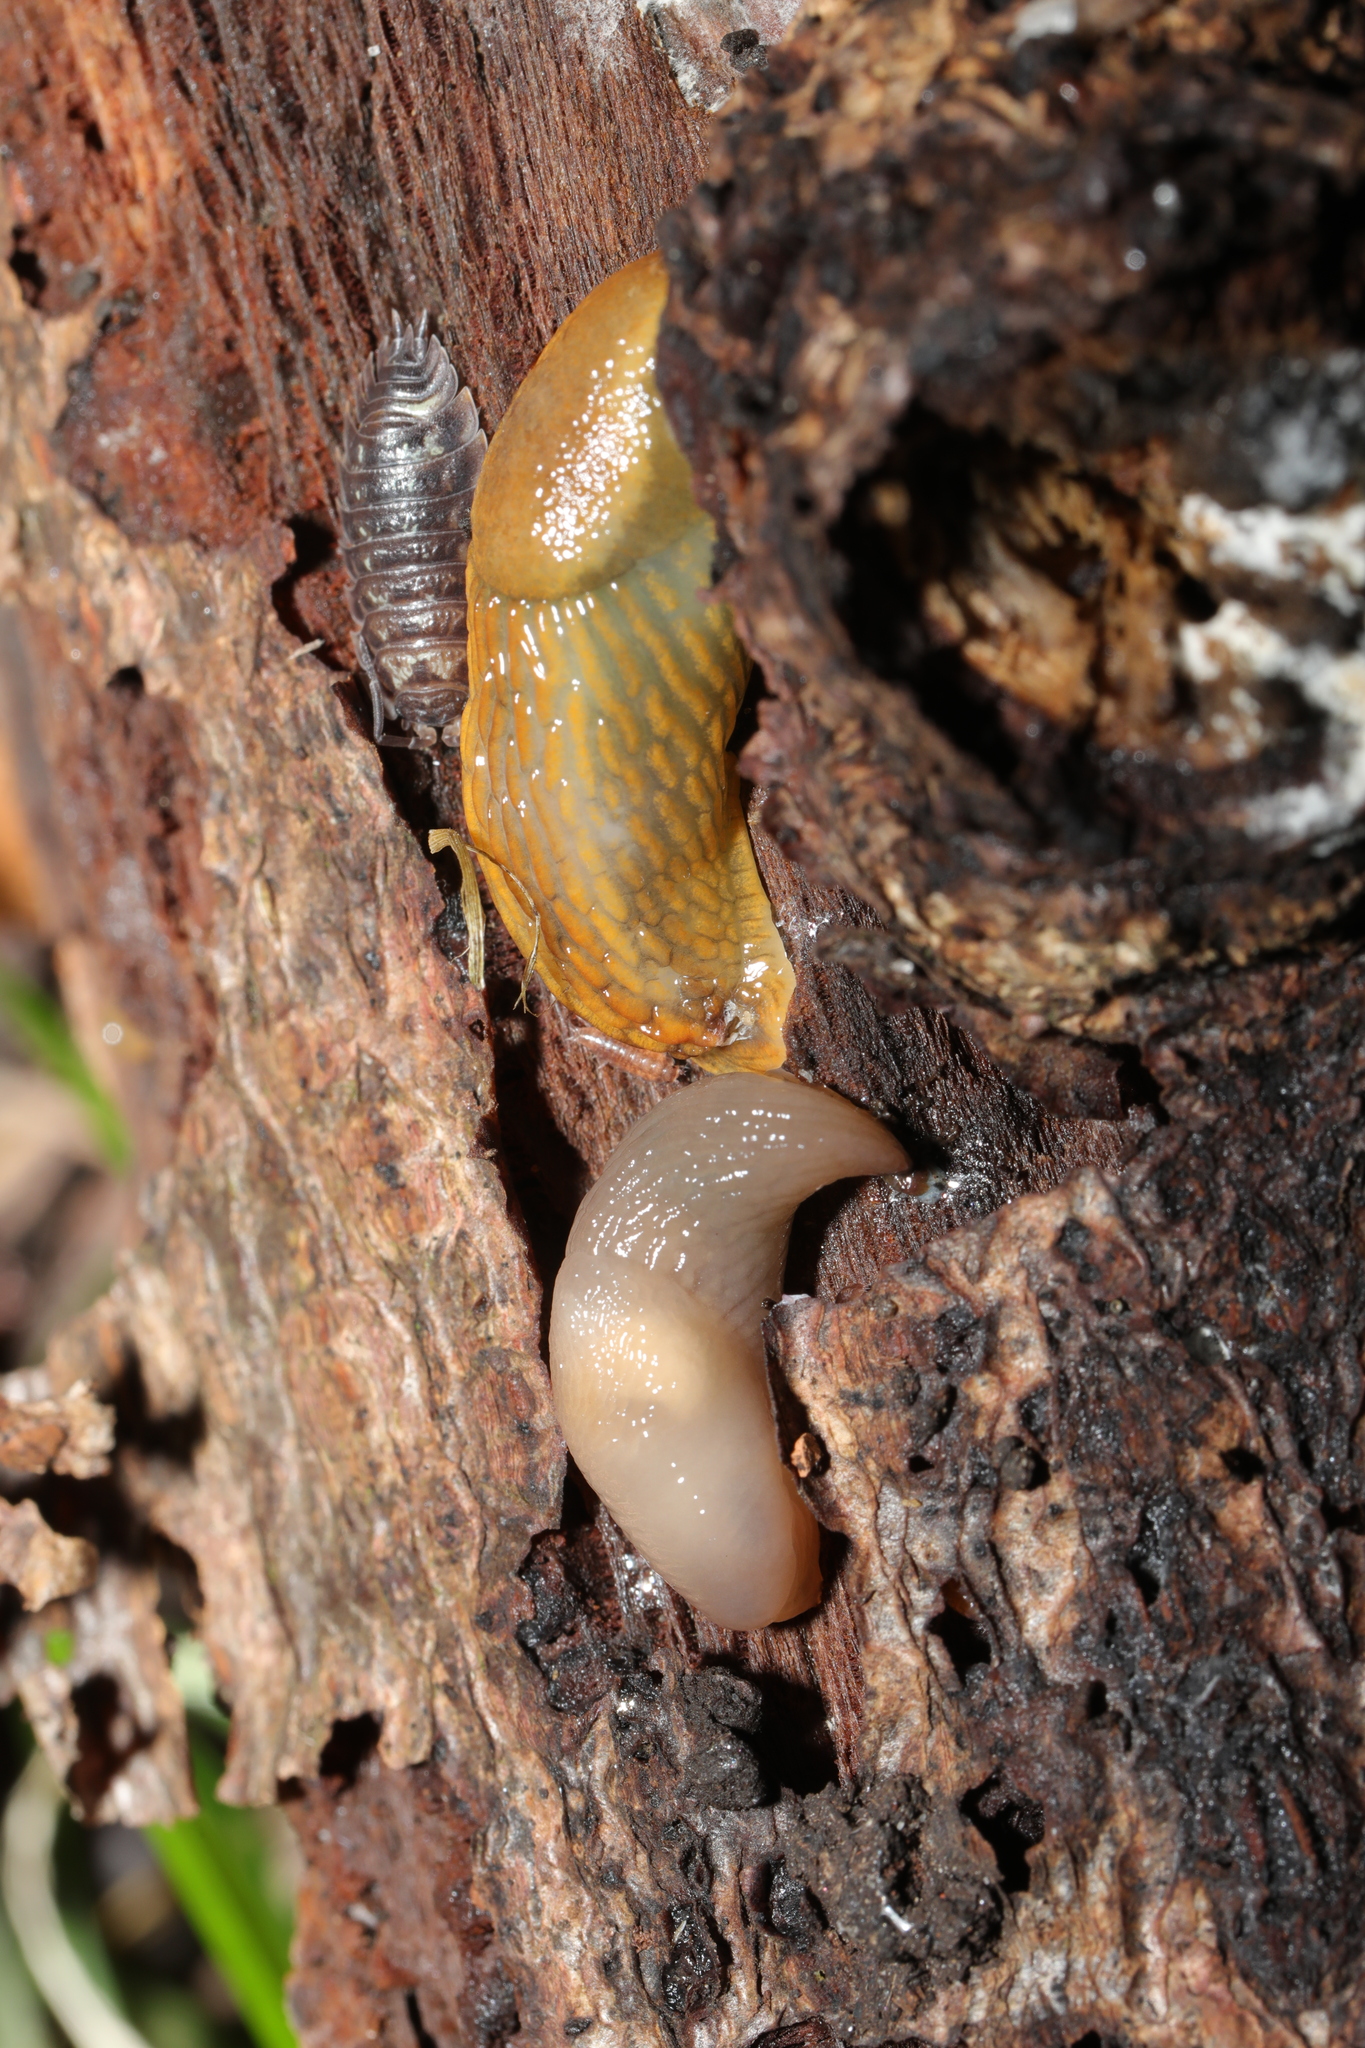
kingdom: Animalia
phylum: Arthropoda
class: Malacostraca
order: Isopoda
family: Oniscidae
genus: Oniscus
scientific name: Oniscus asellus
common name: Common shiny woodlouse
